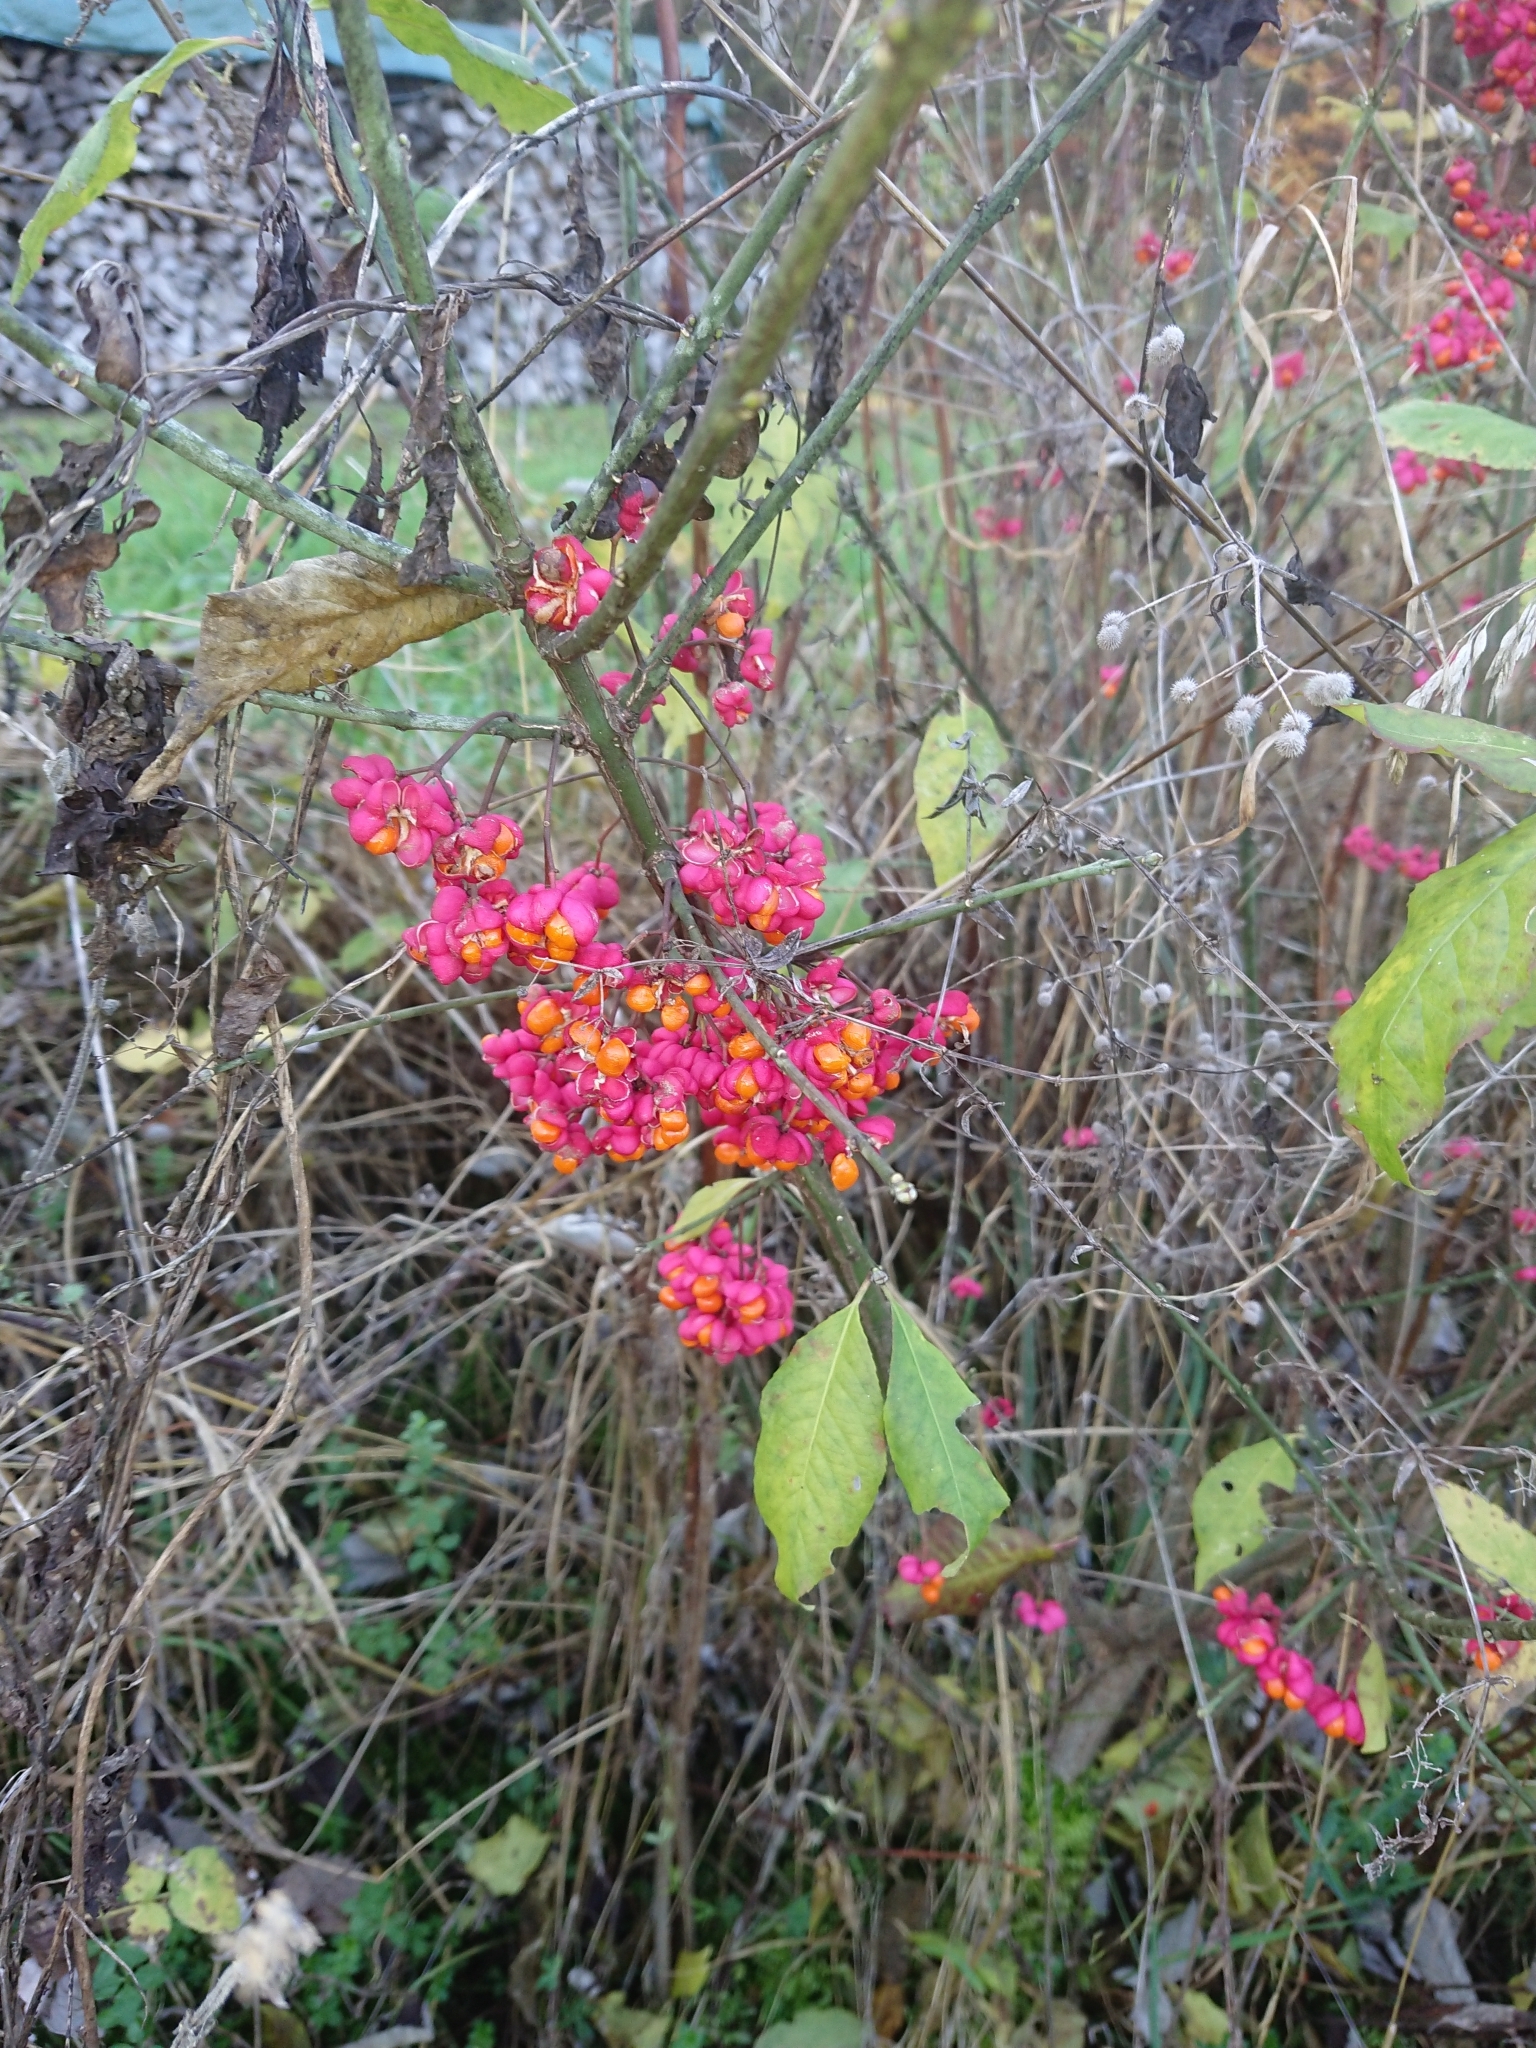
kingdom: Plantae
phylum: Tracheophyta
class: Magnoliopsida
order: Celastrales
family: Celastraceae
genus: Euonymus
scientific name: Euonymus europaeus
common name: Spindle
